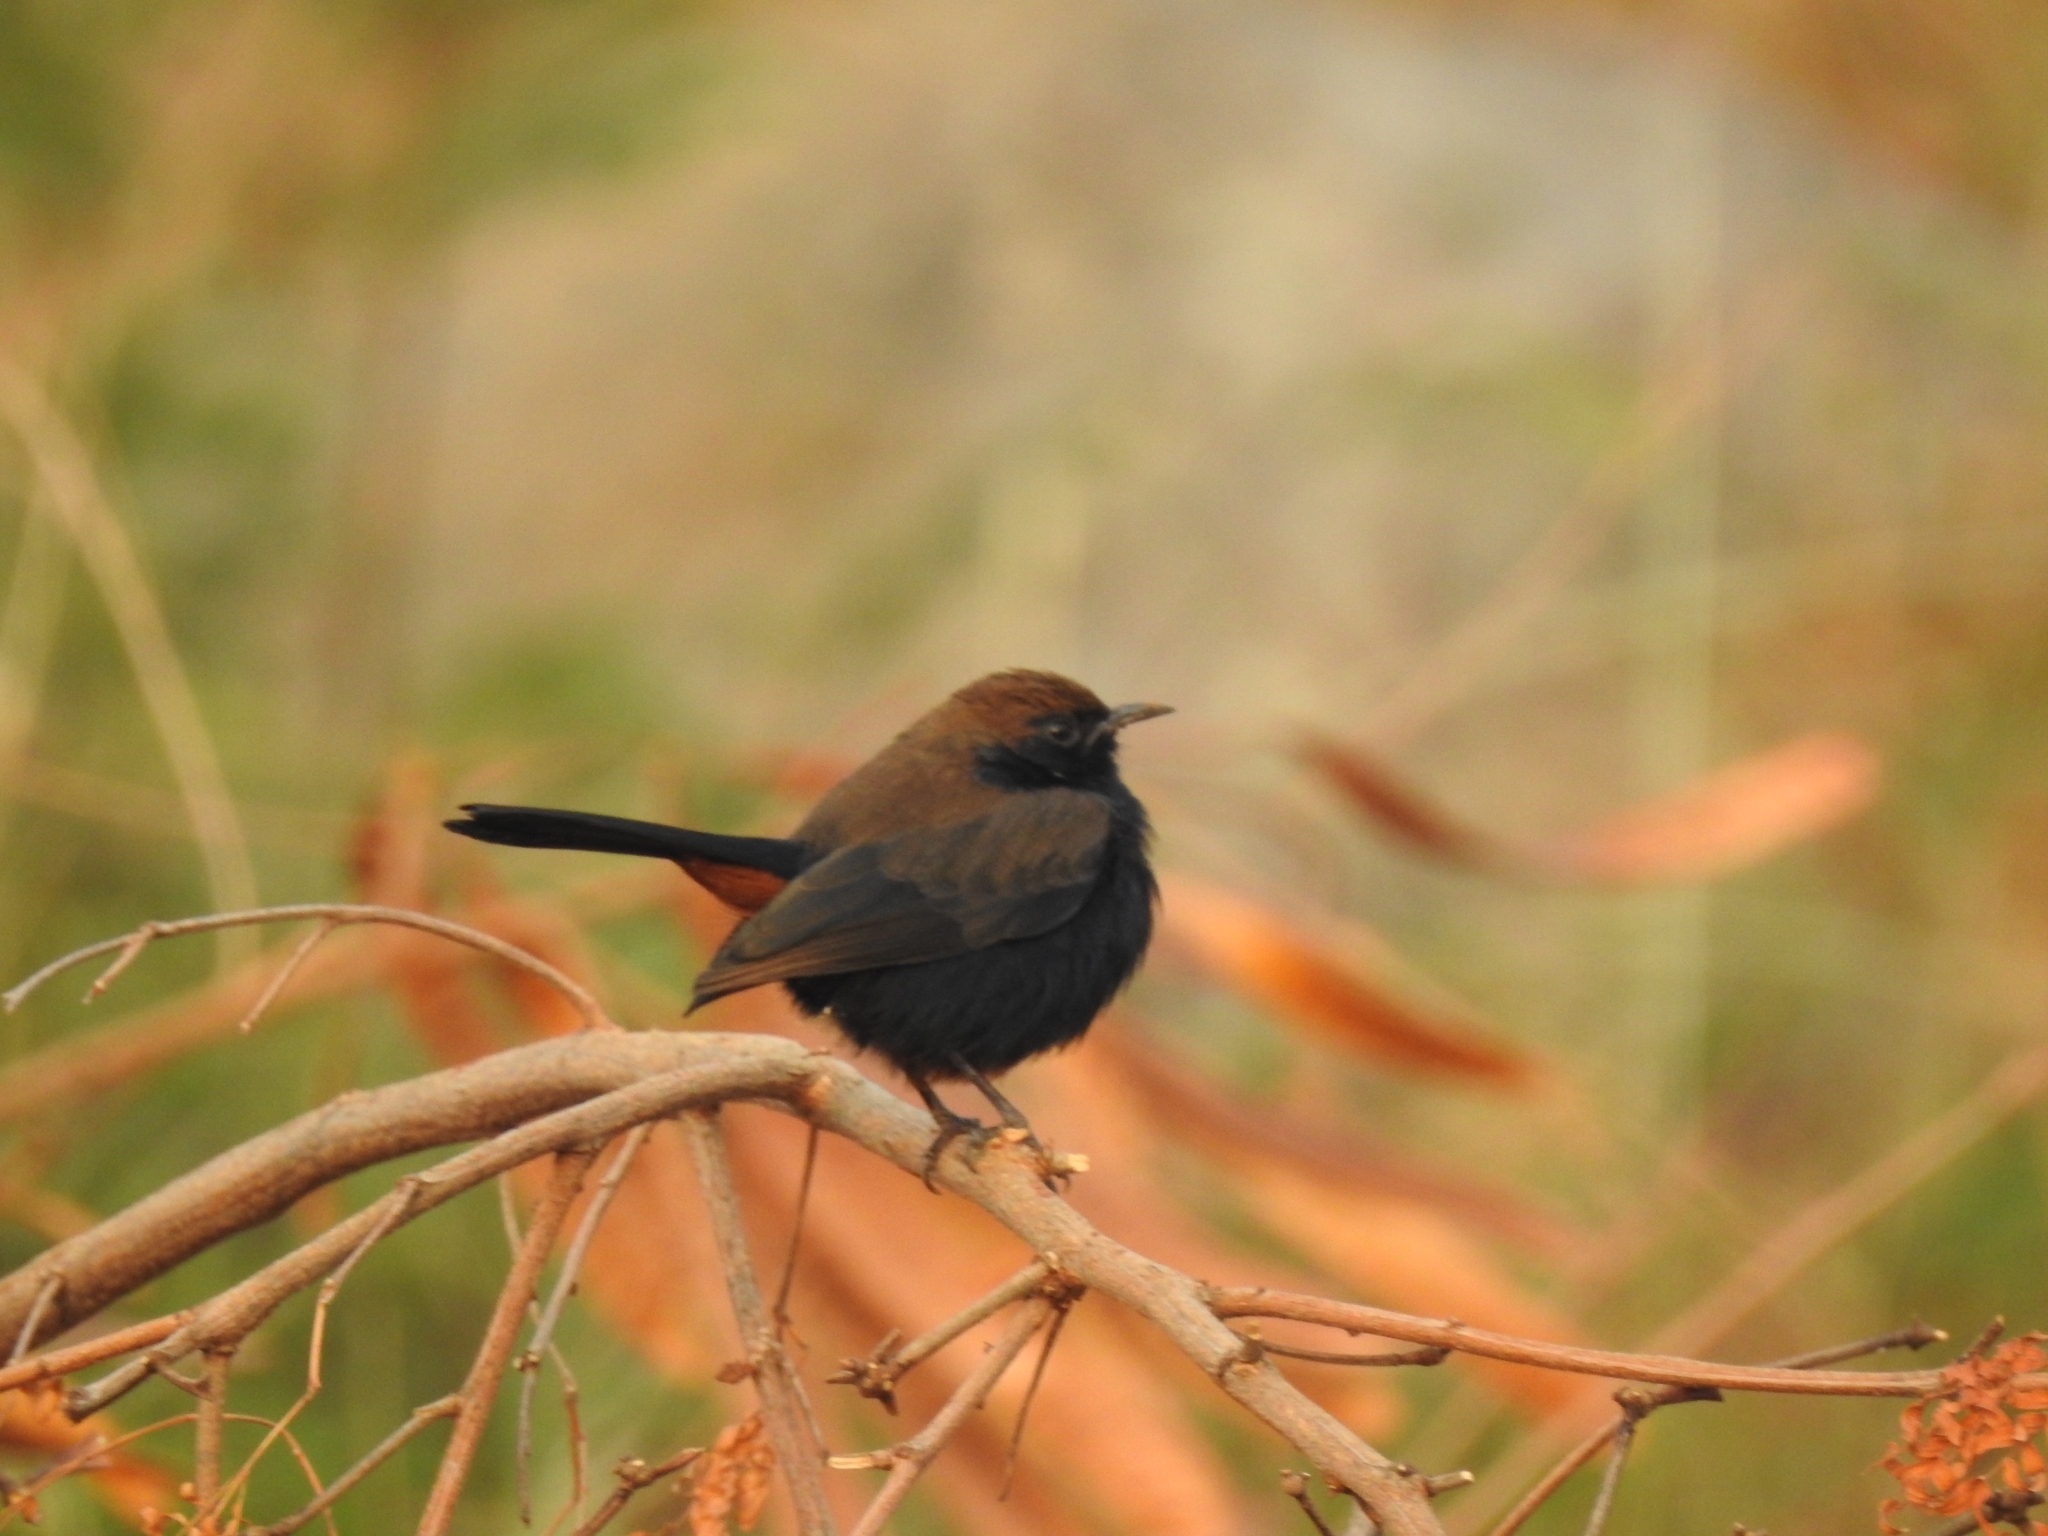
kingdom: Animalia
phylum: Chordata
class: Aves
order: Passeriformes
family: Muscicapidae
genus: Saxicoloides
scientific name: Saxicoloides fulicatus
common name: Indian robin
